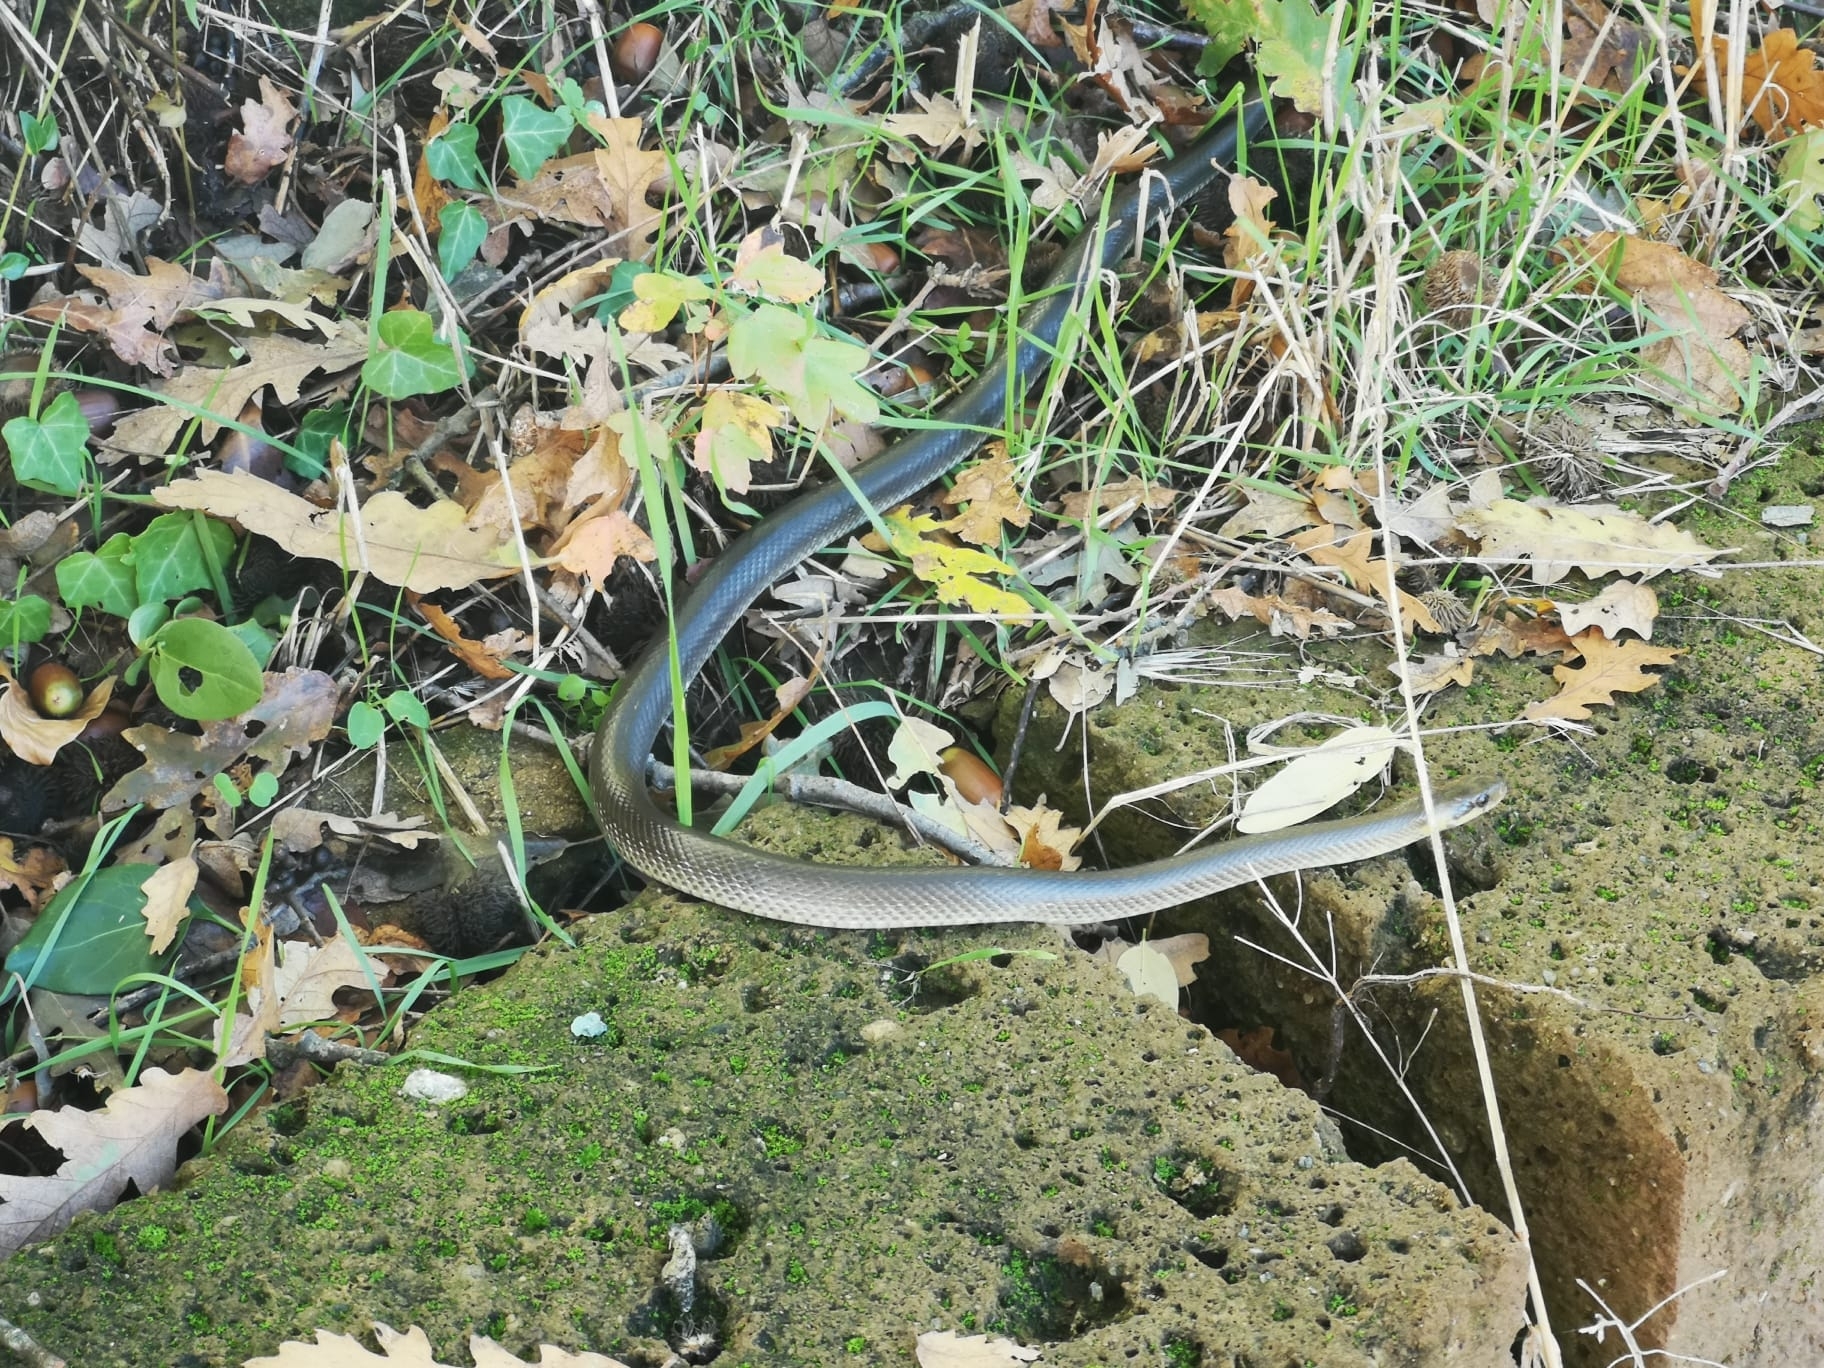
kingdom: Animalia
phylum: Chordata
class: Squamata
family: Colubridae
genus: Zamenis
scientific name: Zamenis longissimus
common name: Aesculapean snake
